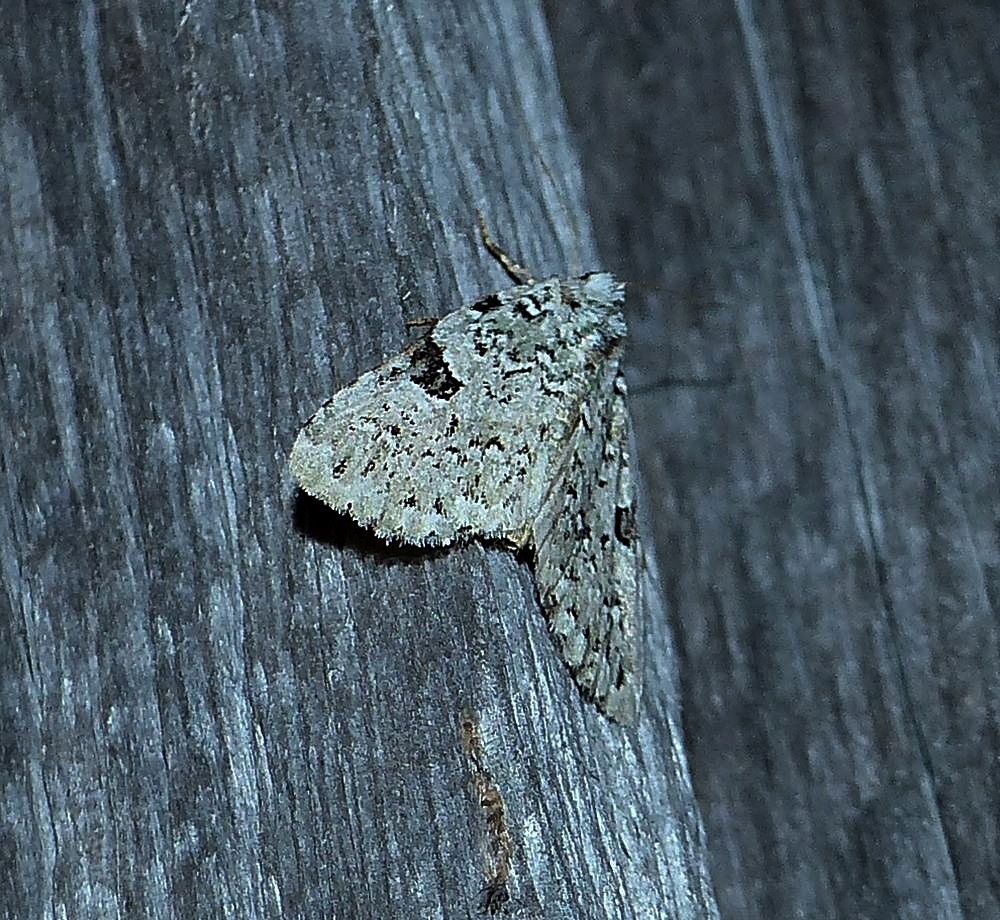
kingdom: Animalia
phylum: Arthropoda
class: Insecta
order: Lepidoptera
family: Noctuidae
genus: Leuconycta
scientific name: Leuconycta diphteroides
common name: Green leuconycta moth
